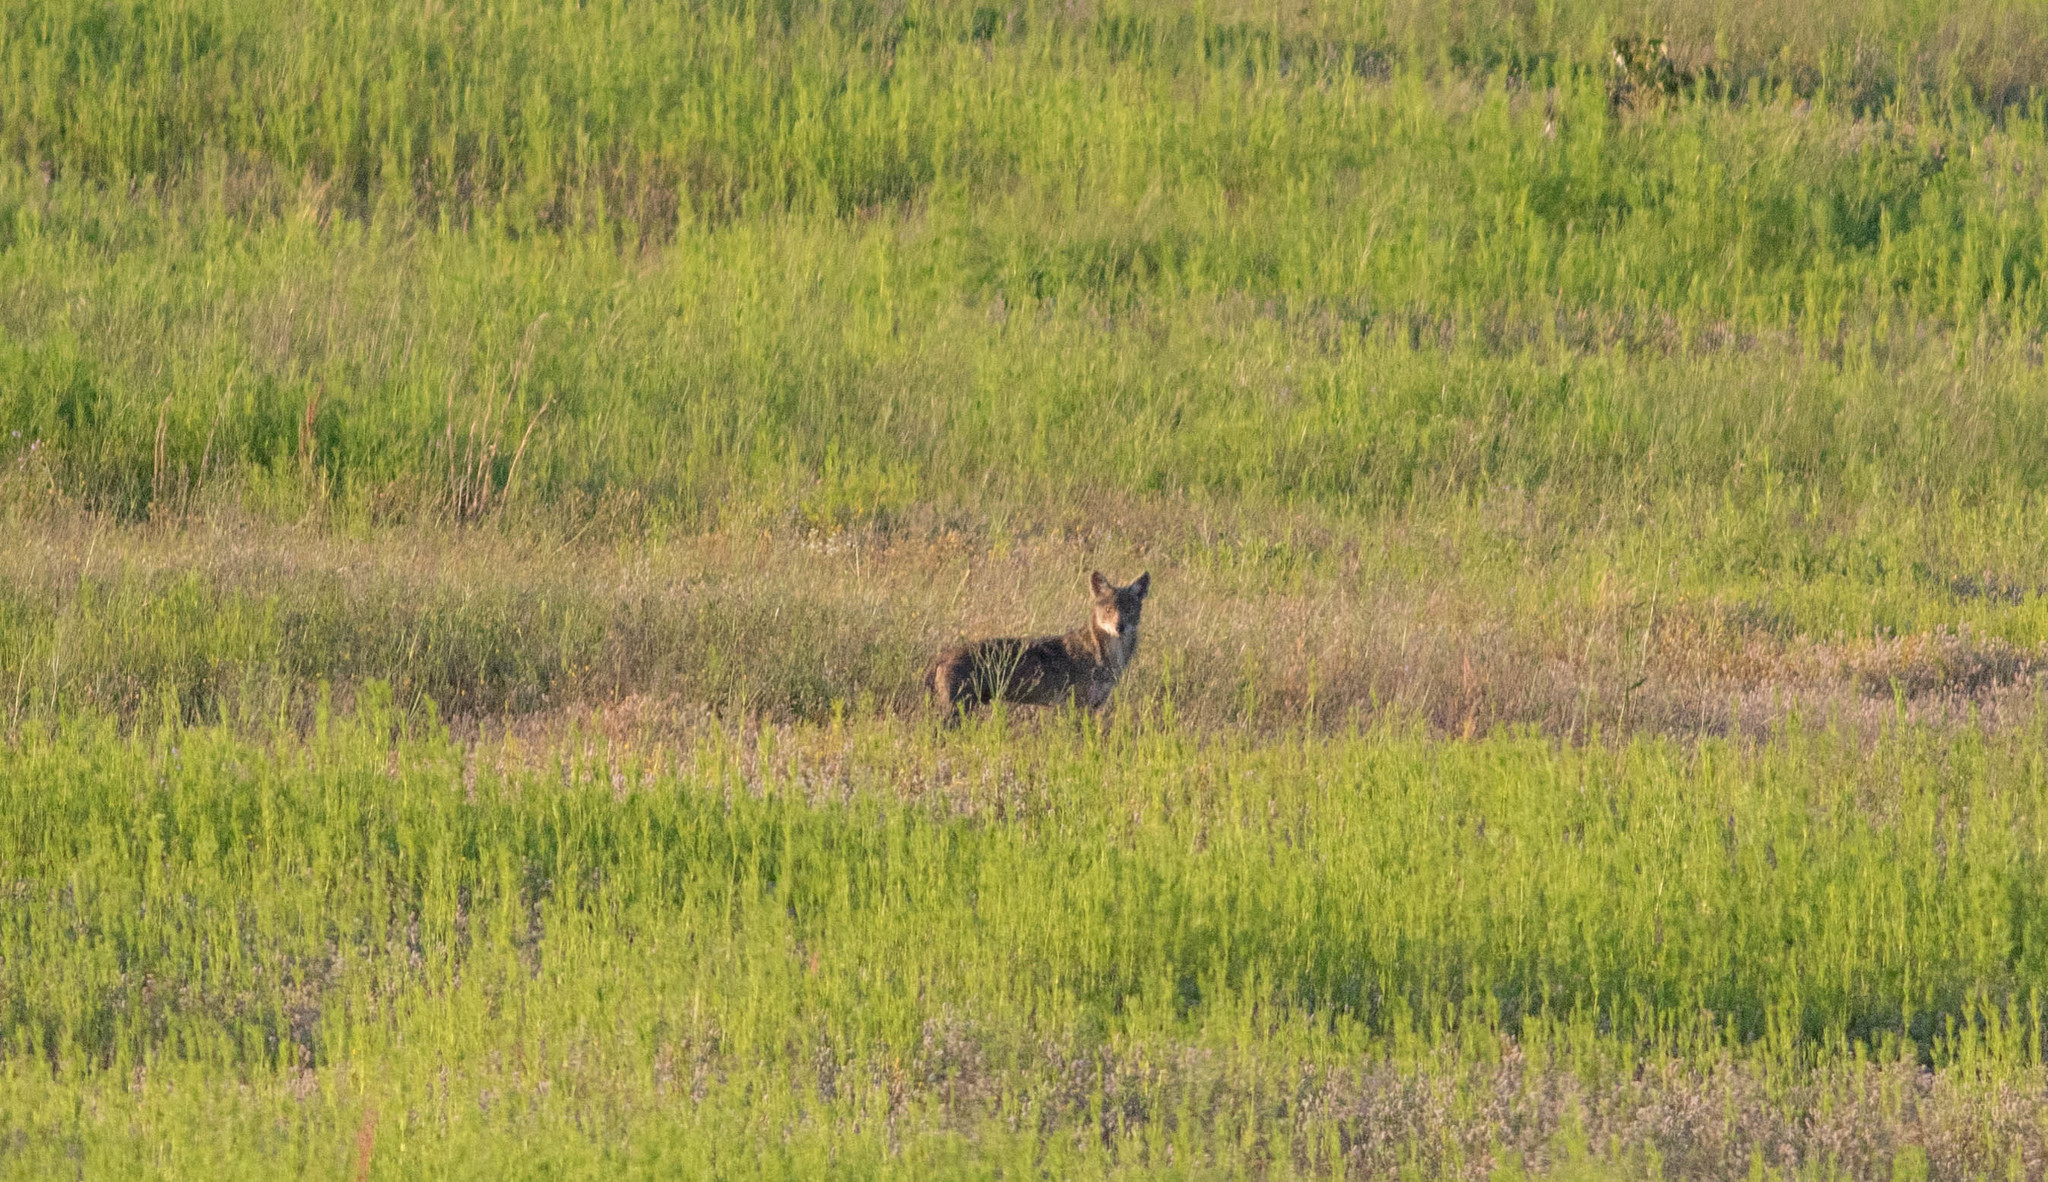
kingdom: Animalia
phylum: Chordata
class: Mammalia
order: Carnivora
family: Canidae
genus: Canis
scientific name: Canis latrans
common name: Coyote
